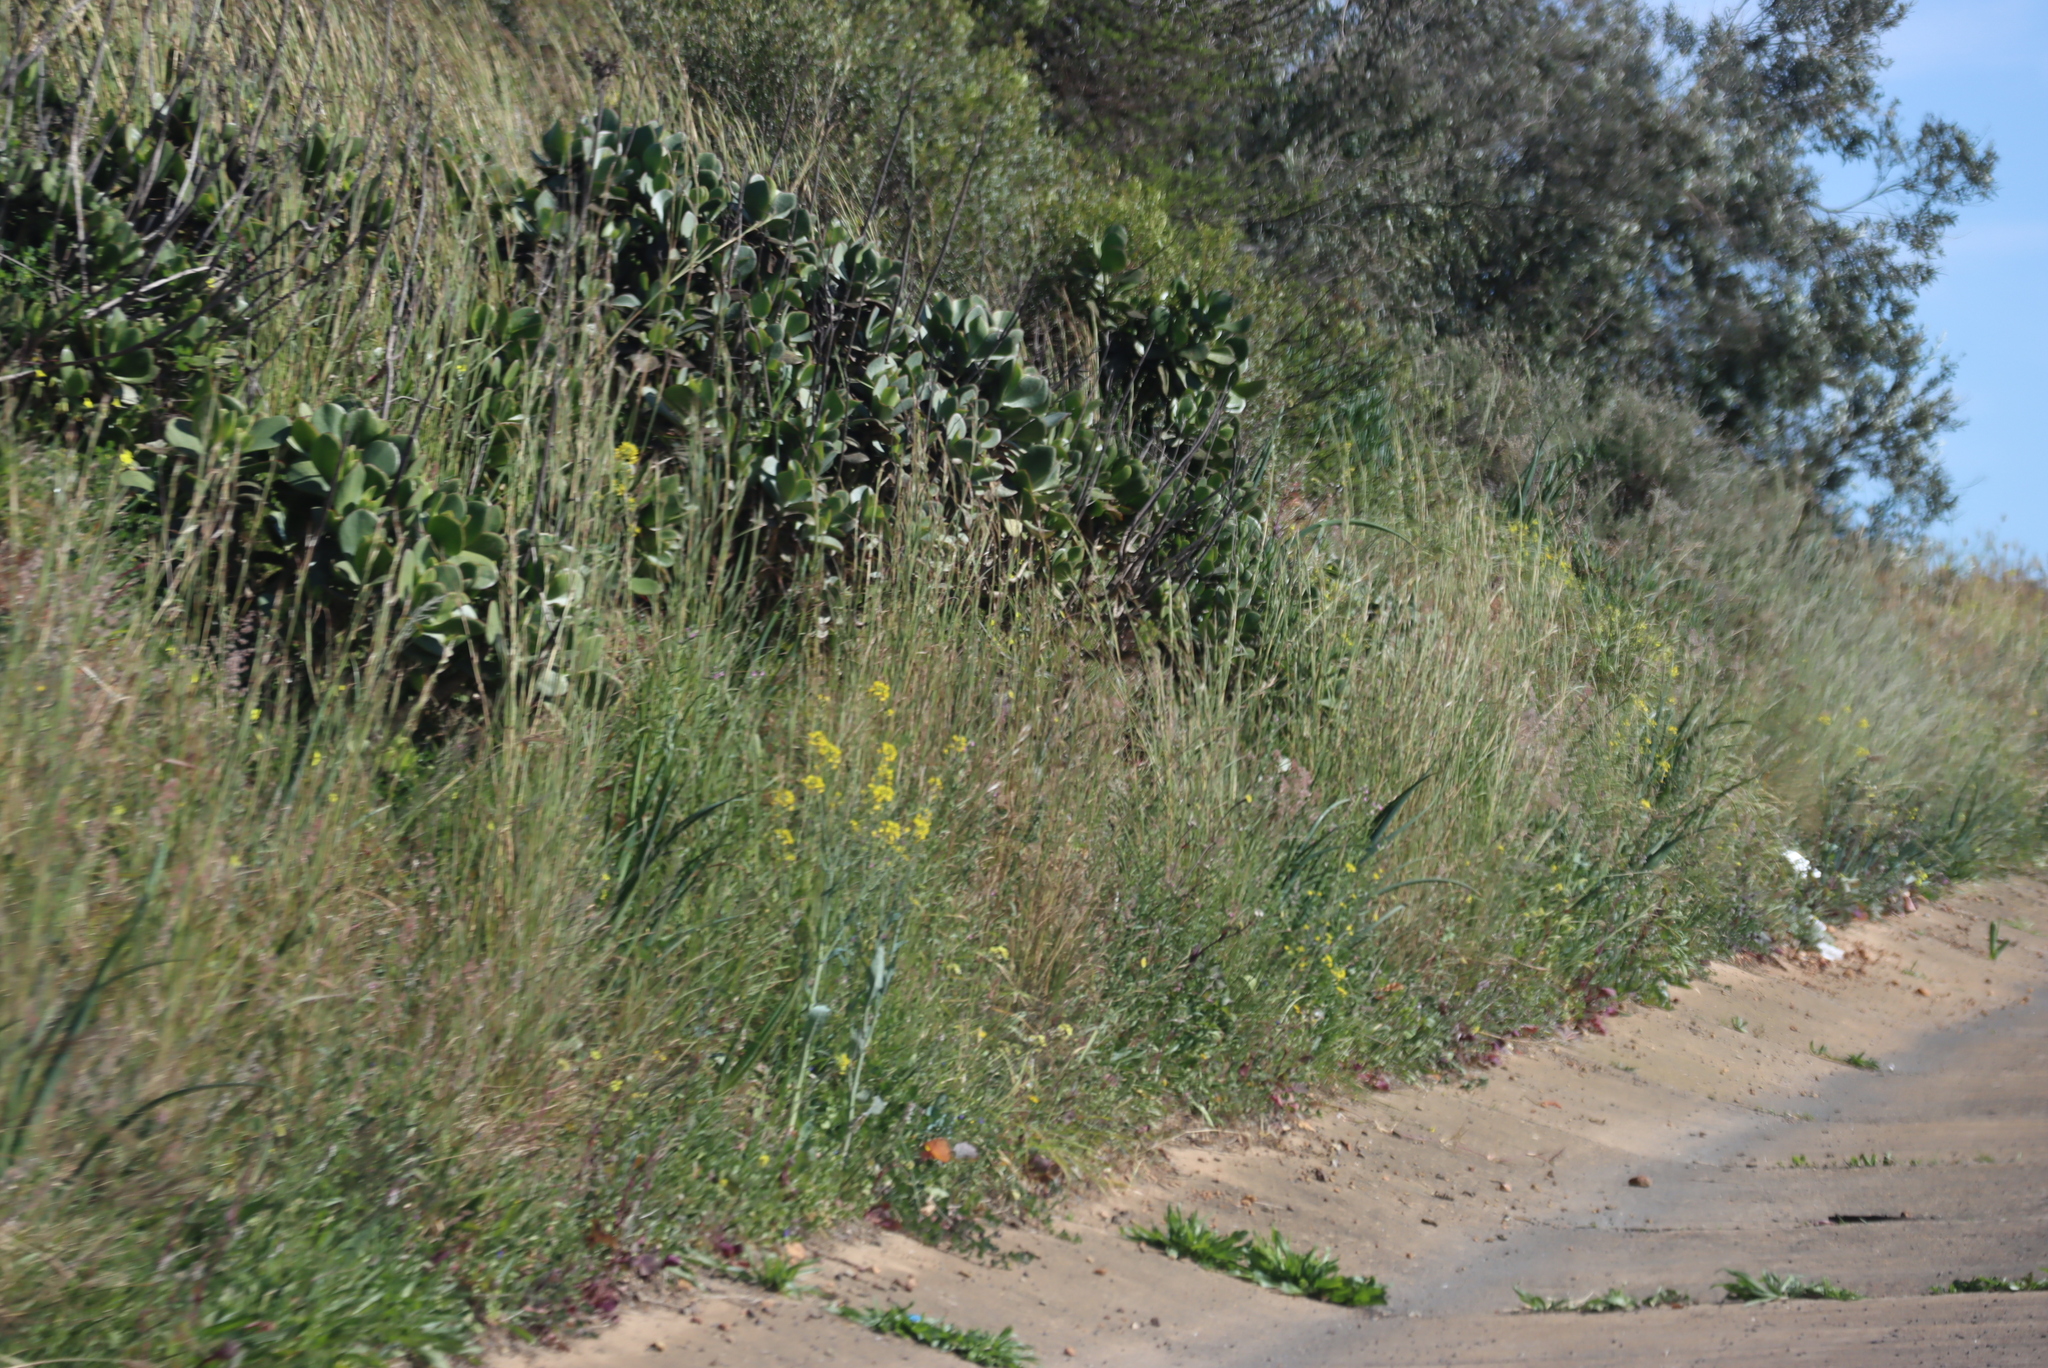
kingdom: Plantae
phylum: Tracheophyta
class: Magnoliopsida
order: Saxifragales
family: Crassulaceae
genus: Cotyledon
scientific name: Cotyledon orbiculata
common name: Pig's ear
